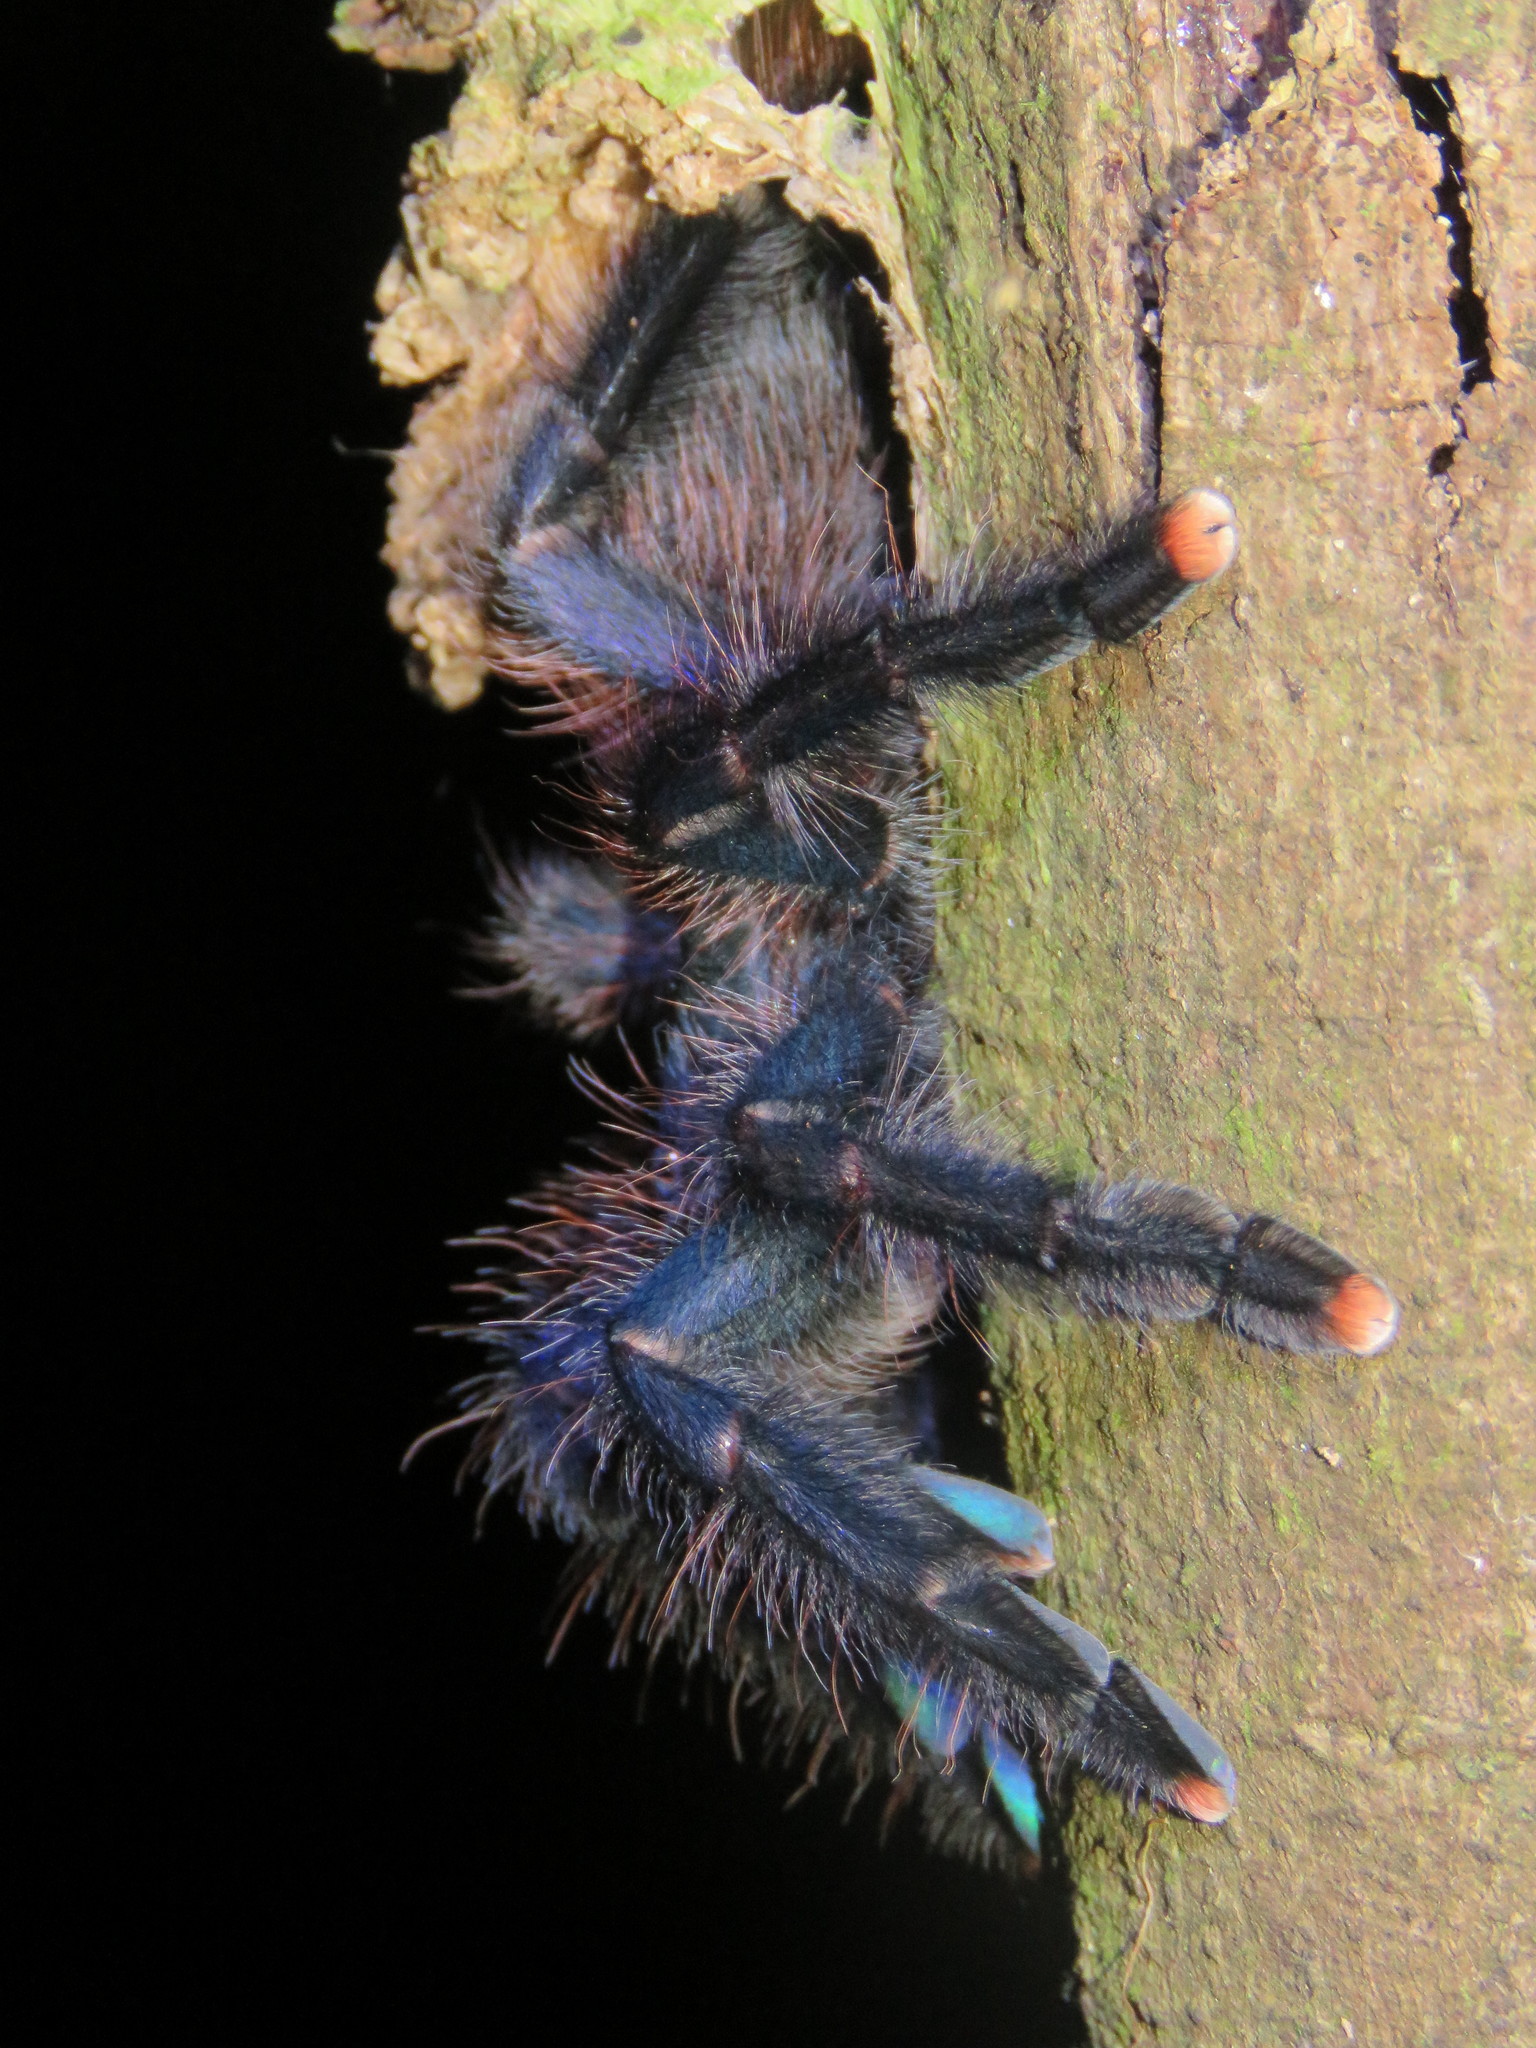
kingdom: Animalia
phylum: Arthropoda
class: Arachnida
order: Araneae
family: Theraphosidae
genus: Avicularia
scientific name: Avicularia avicularia
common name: Tarantula spiders
